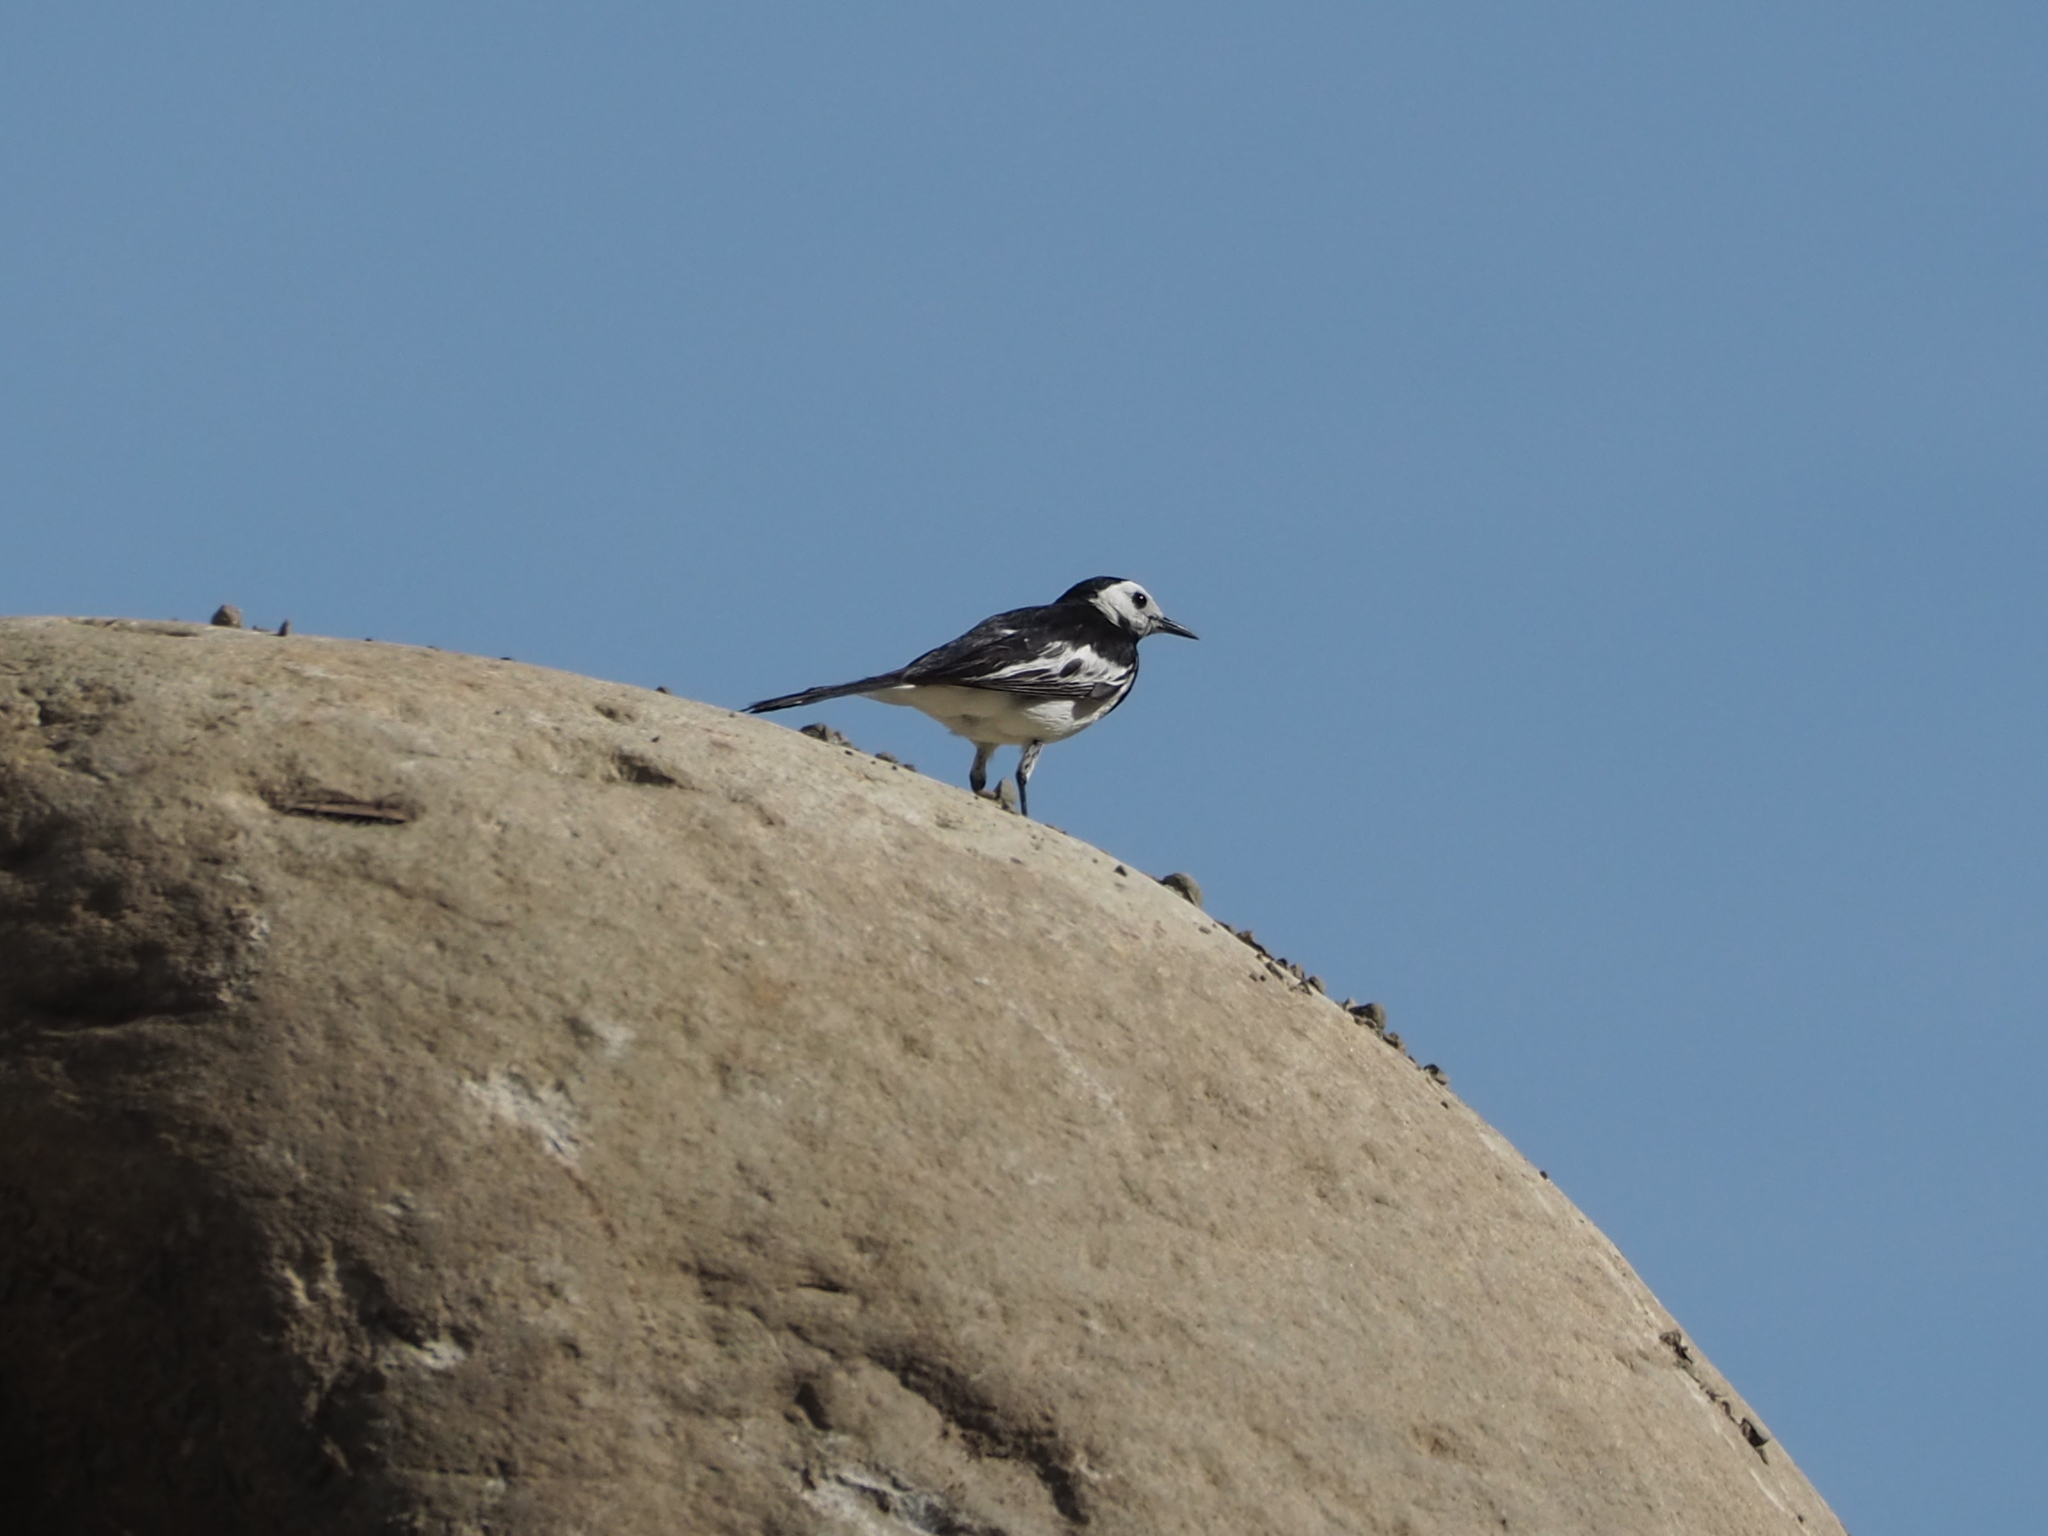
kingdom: Animalia
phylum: Chordata
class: Aves
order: Passeriformes
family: Motacillidae
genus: Motacilla
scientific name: Motacilla alba
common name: White wagtail
